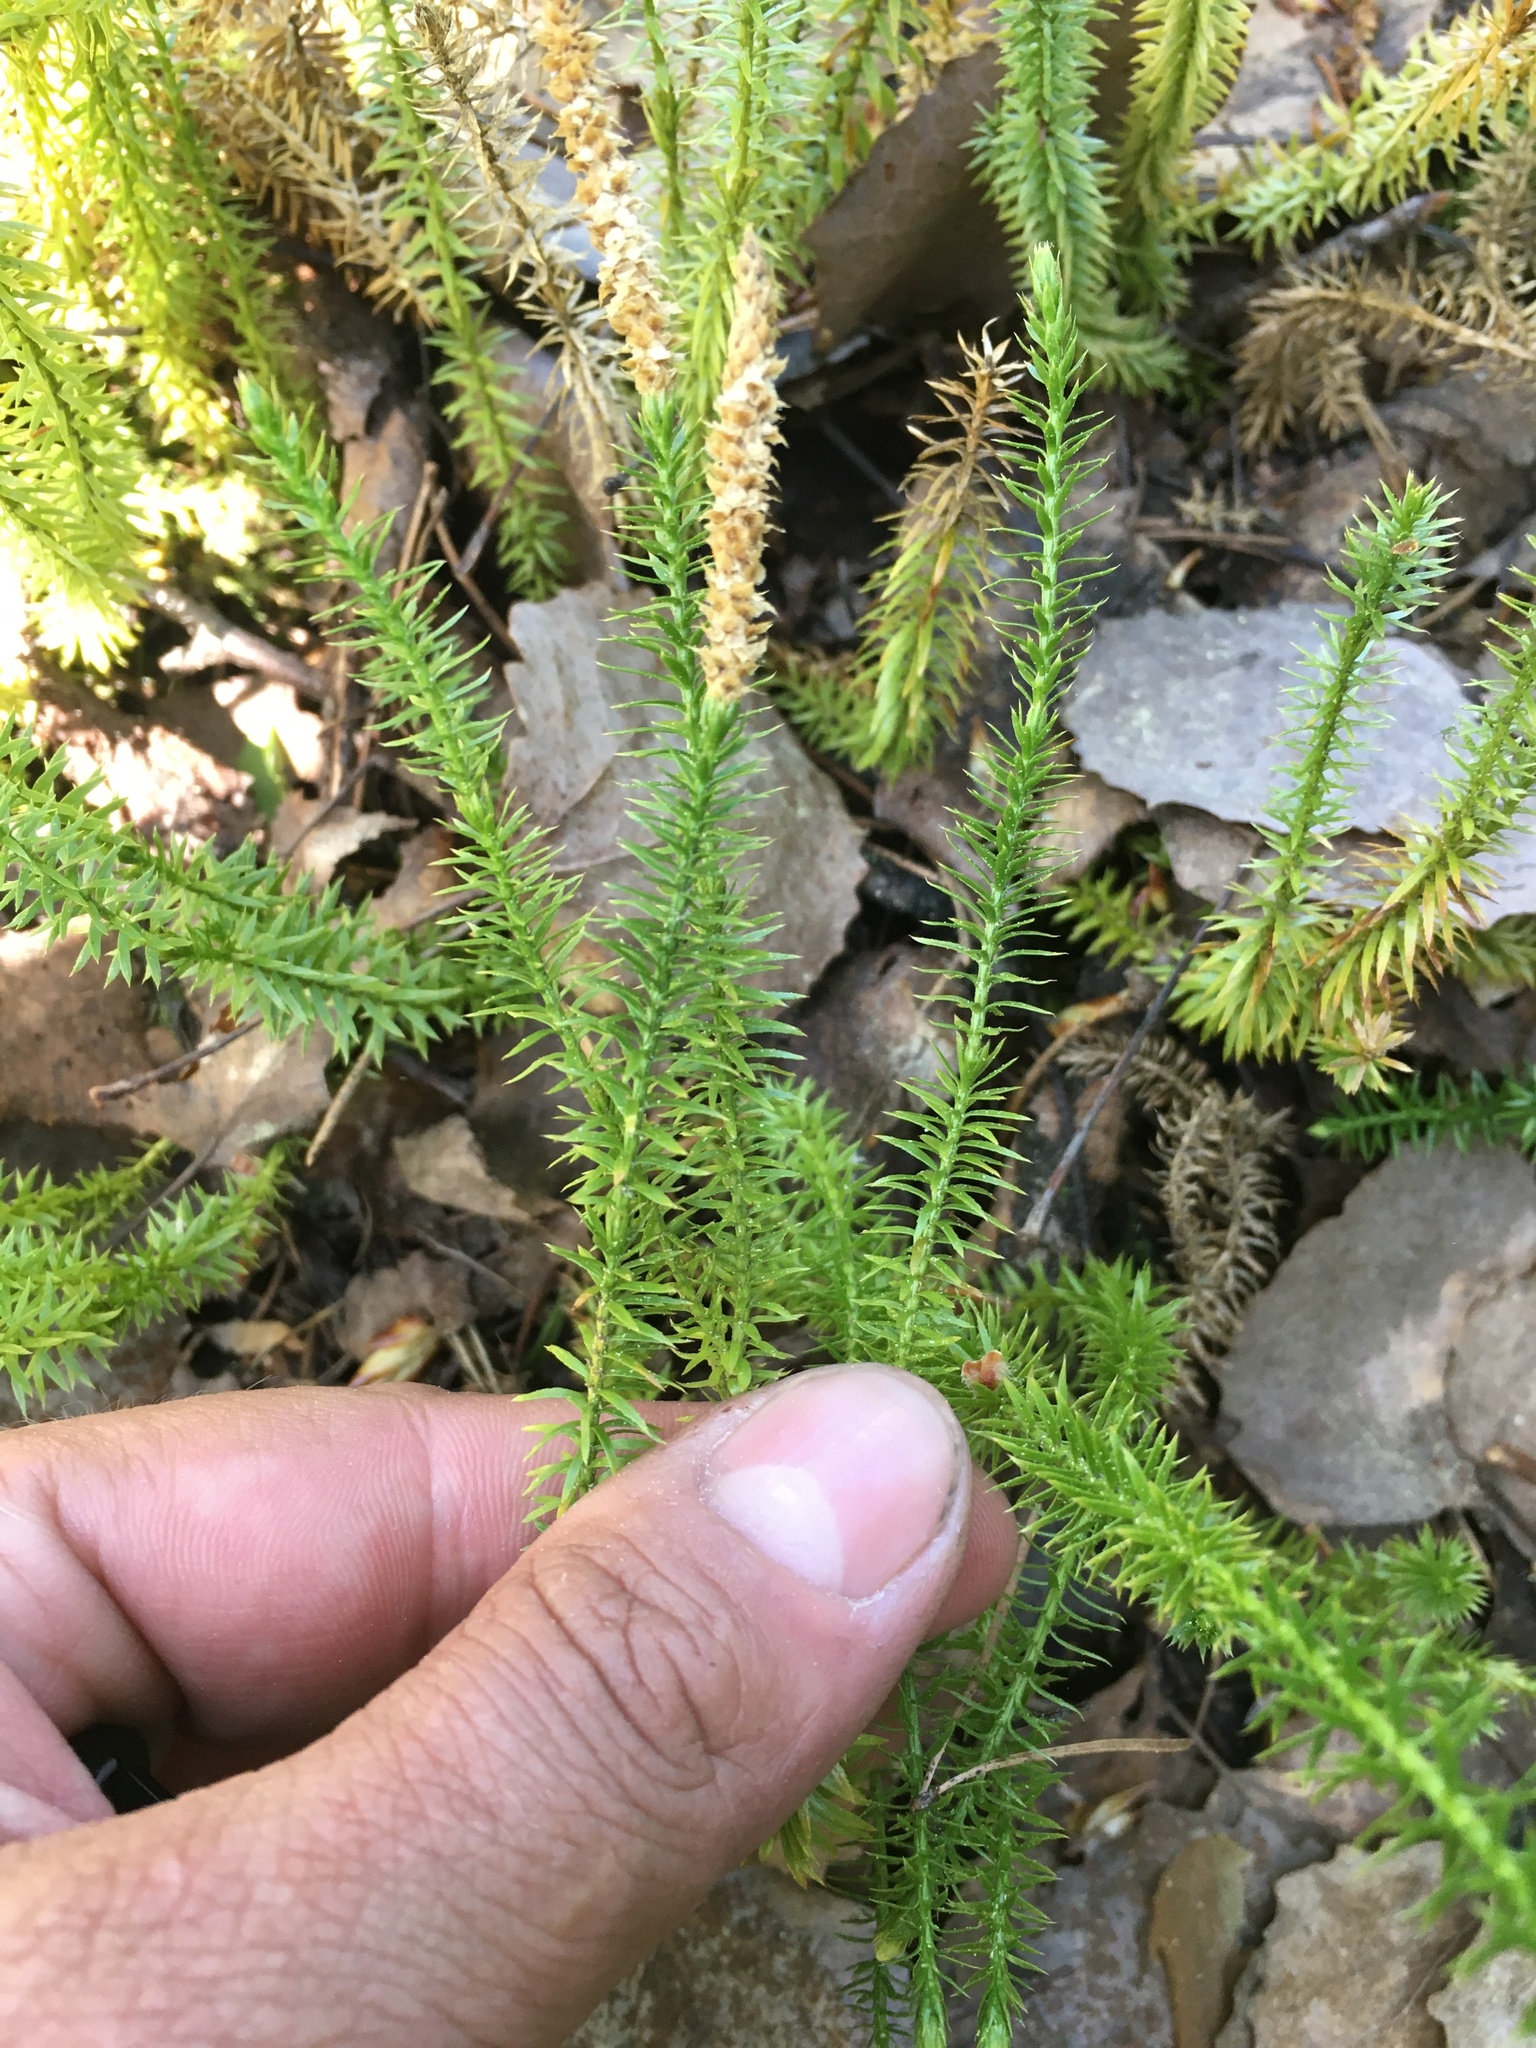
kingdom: Plantae
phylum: Tracheophyta
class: Lycopodiopsida
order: Lycopodiales
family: Lycopodiaceae
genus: Spinulum
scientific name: Spinulum annotinum
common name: Interrupted club-moss
